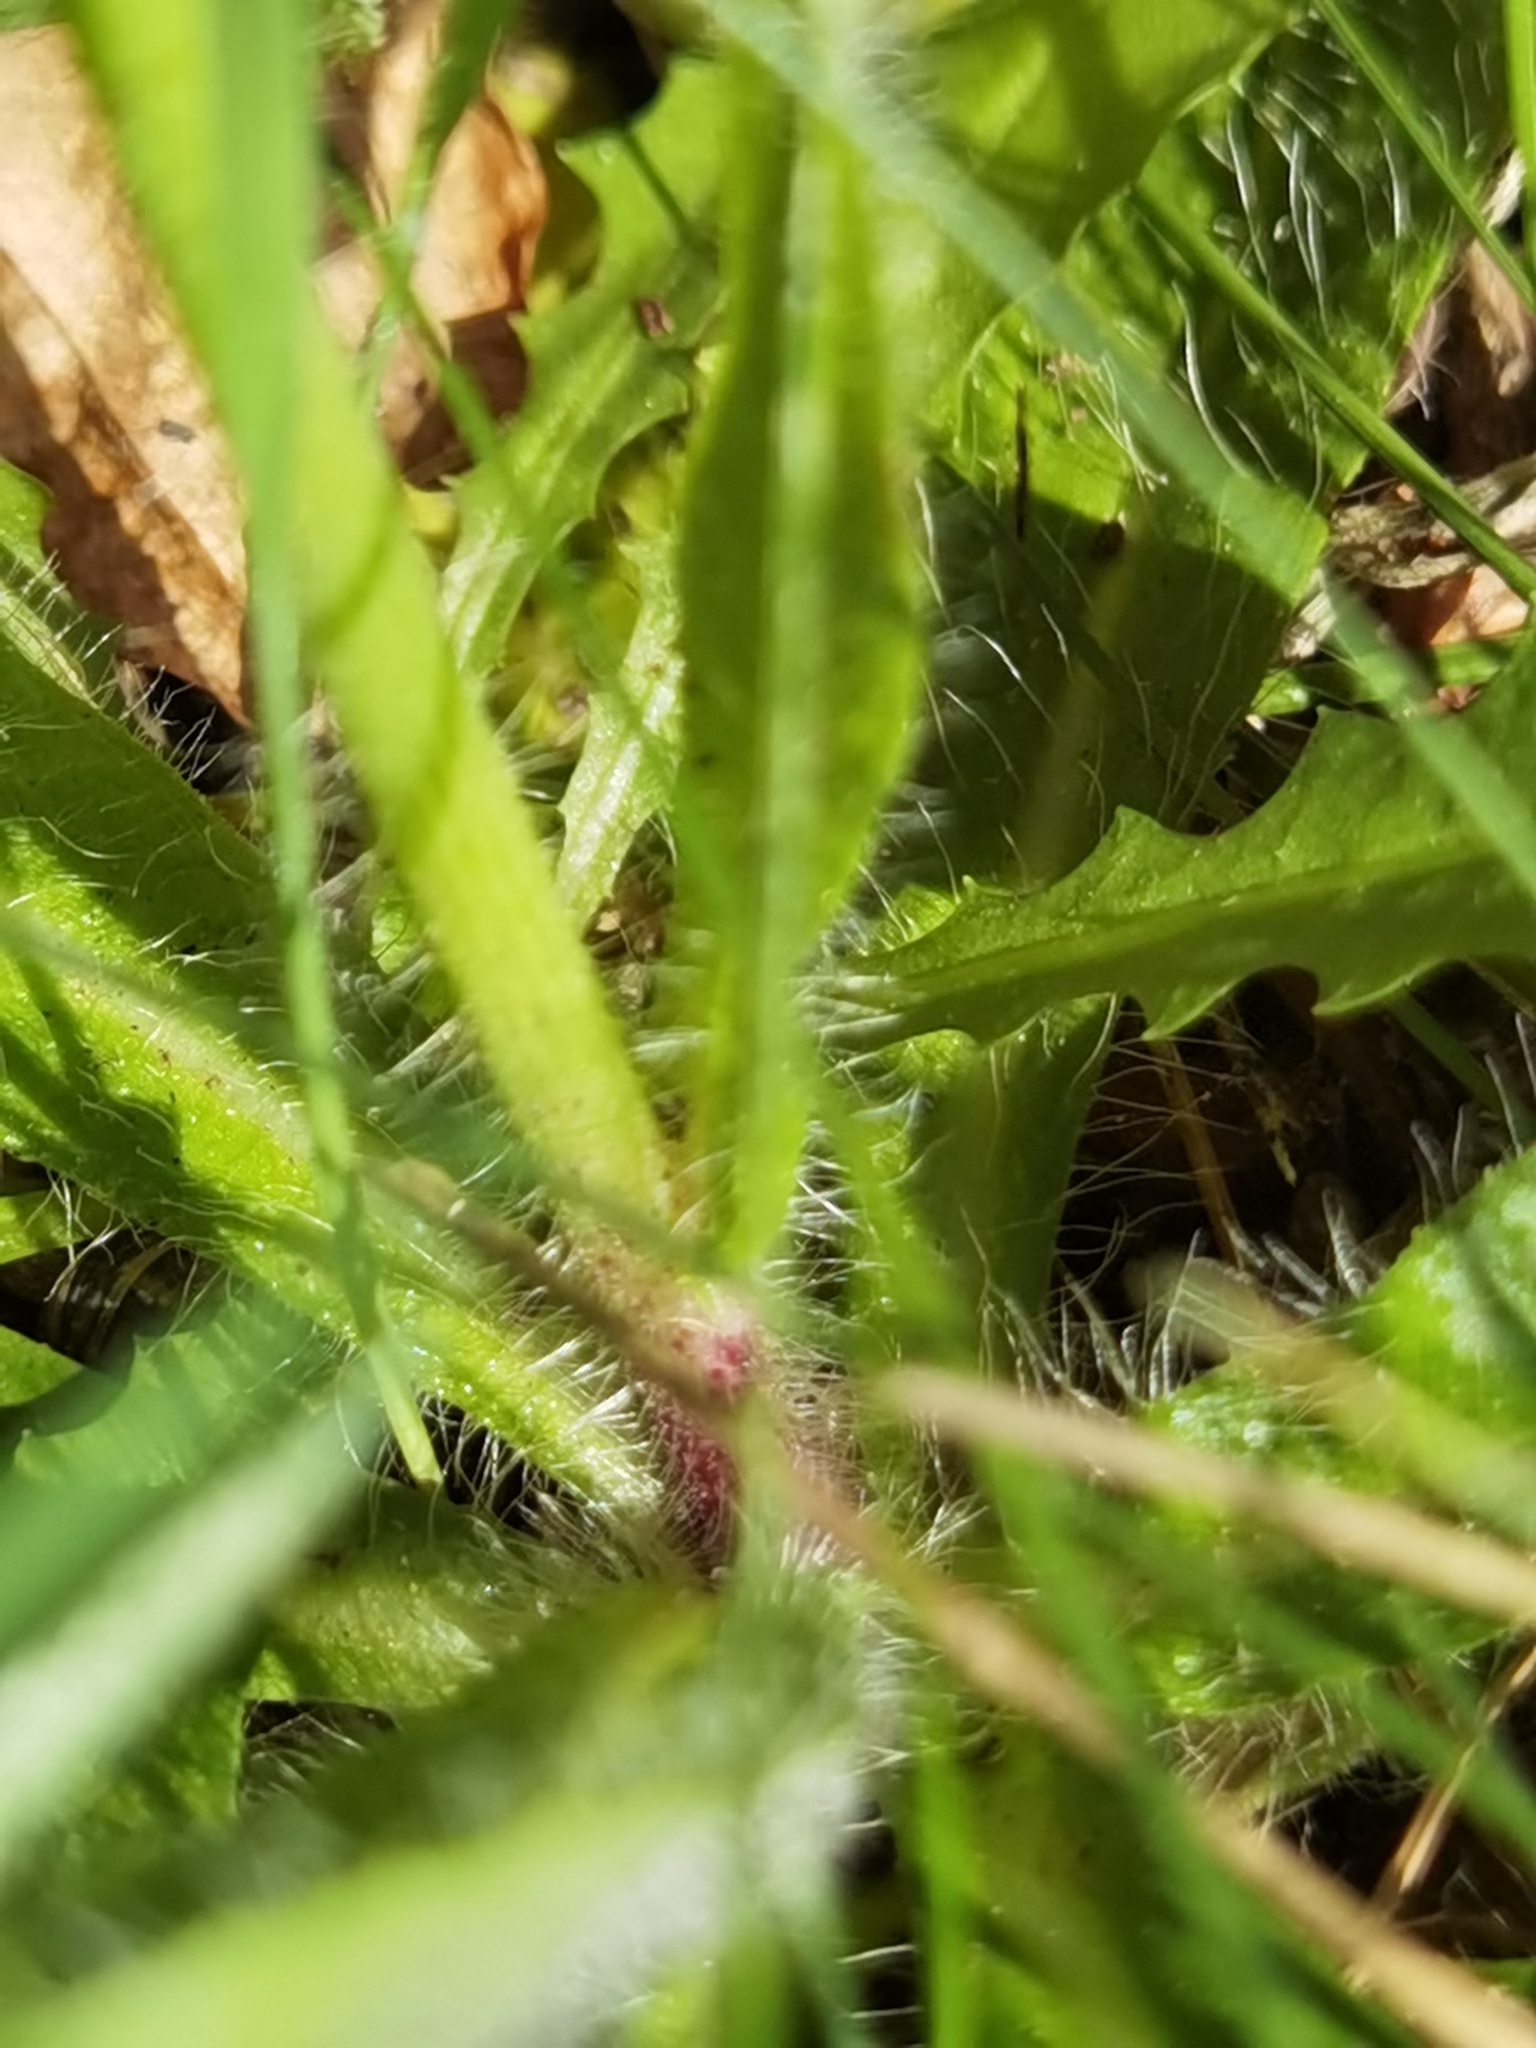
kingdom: Plantae
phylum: Tracheophyta
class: Magnoliopsida
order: Asterales
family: Asteraceae
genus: Pilosella
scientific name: Pilosella aurantiaca
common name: Fox-and-cubs
